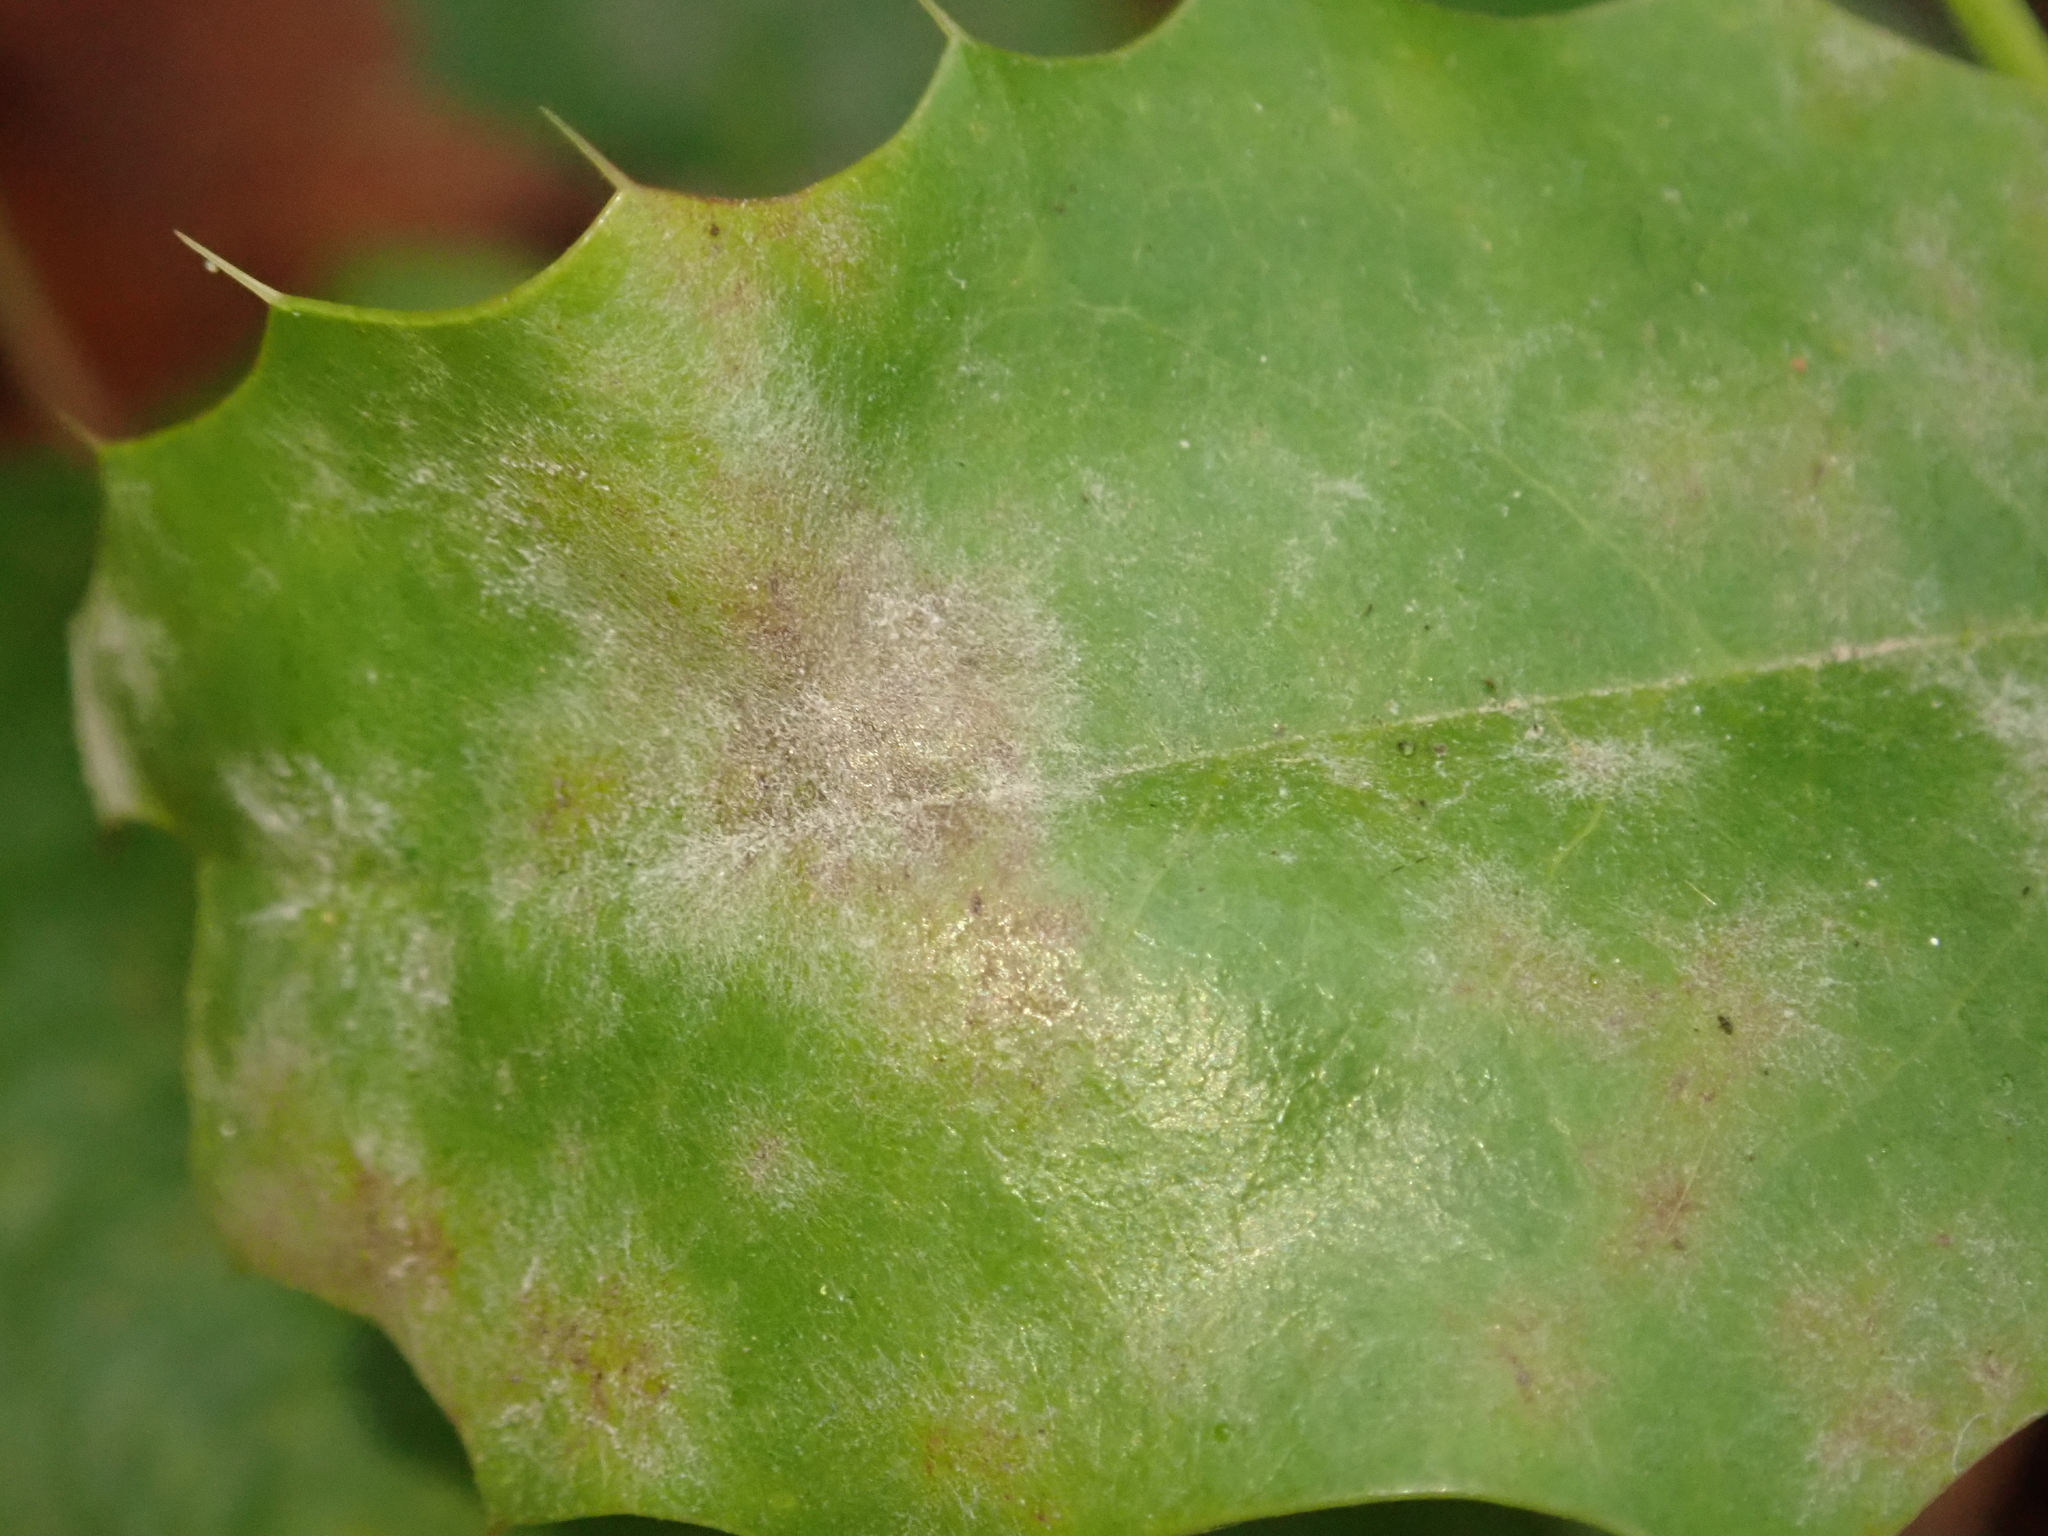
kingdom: Fungi
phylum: Ascomycota
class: Leotiomycetes
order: Helotiales
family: Erysiphaceae
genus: Erysiphe
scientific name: Erysiphe berberidis
